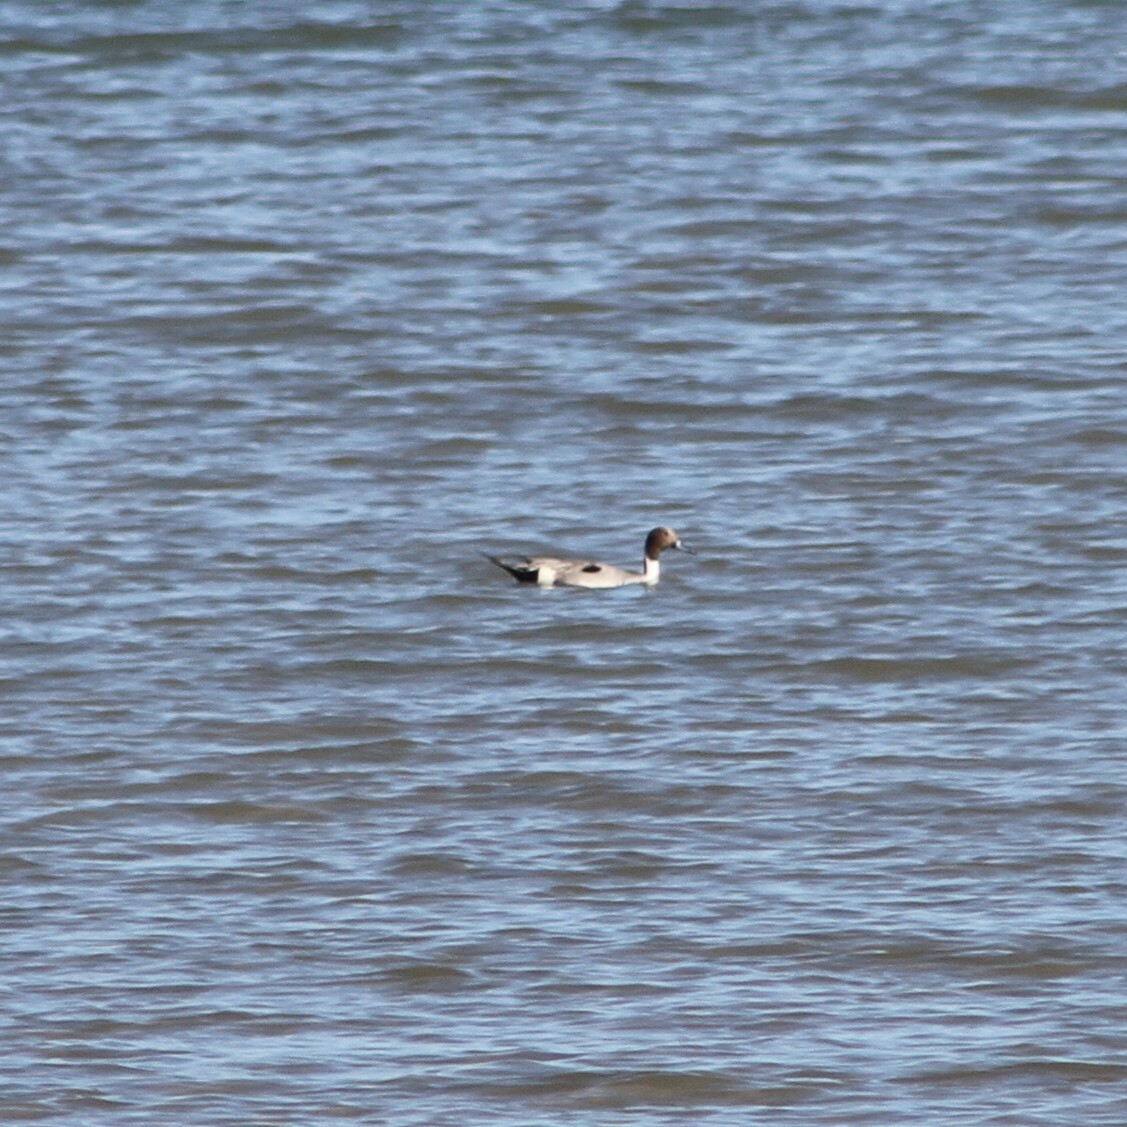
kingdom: Animalia
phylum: Chordata
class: Aves
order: Anseriformes
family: Anatidae
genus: Anas
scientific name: Anas acuta
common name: Northern pintail
